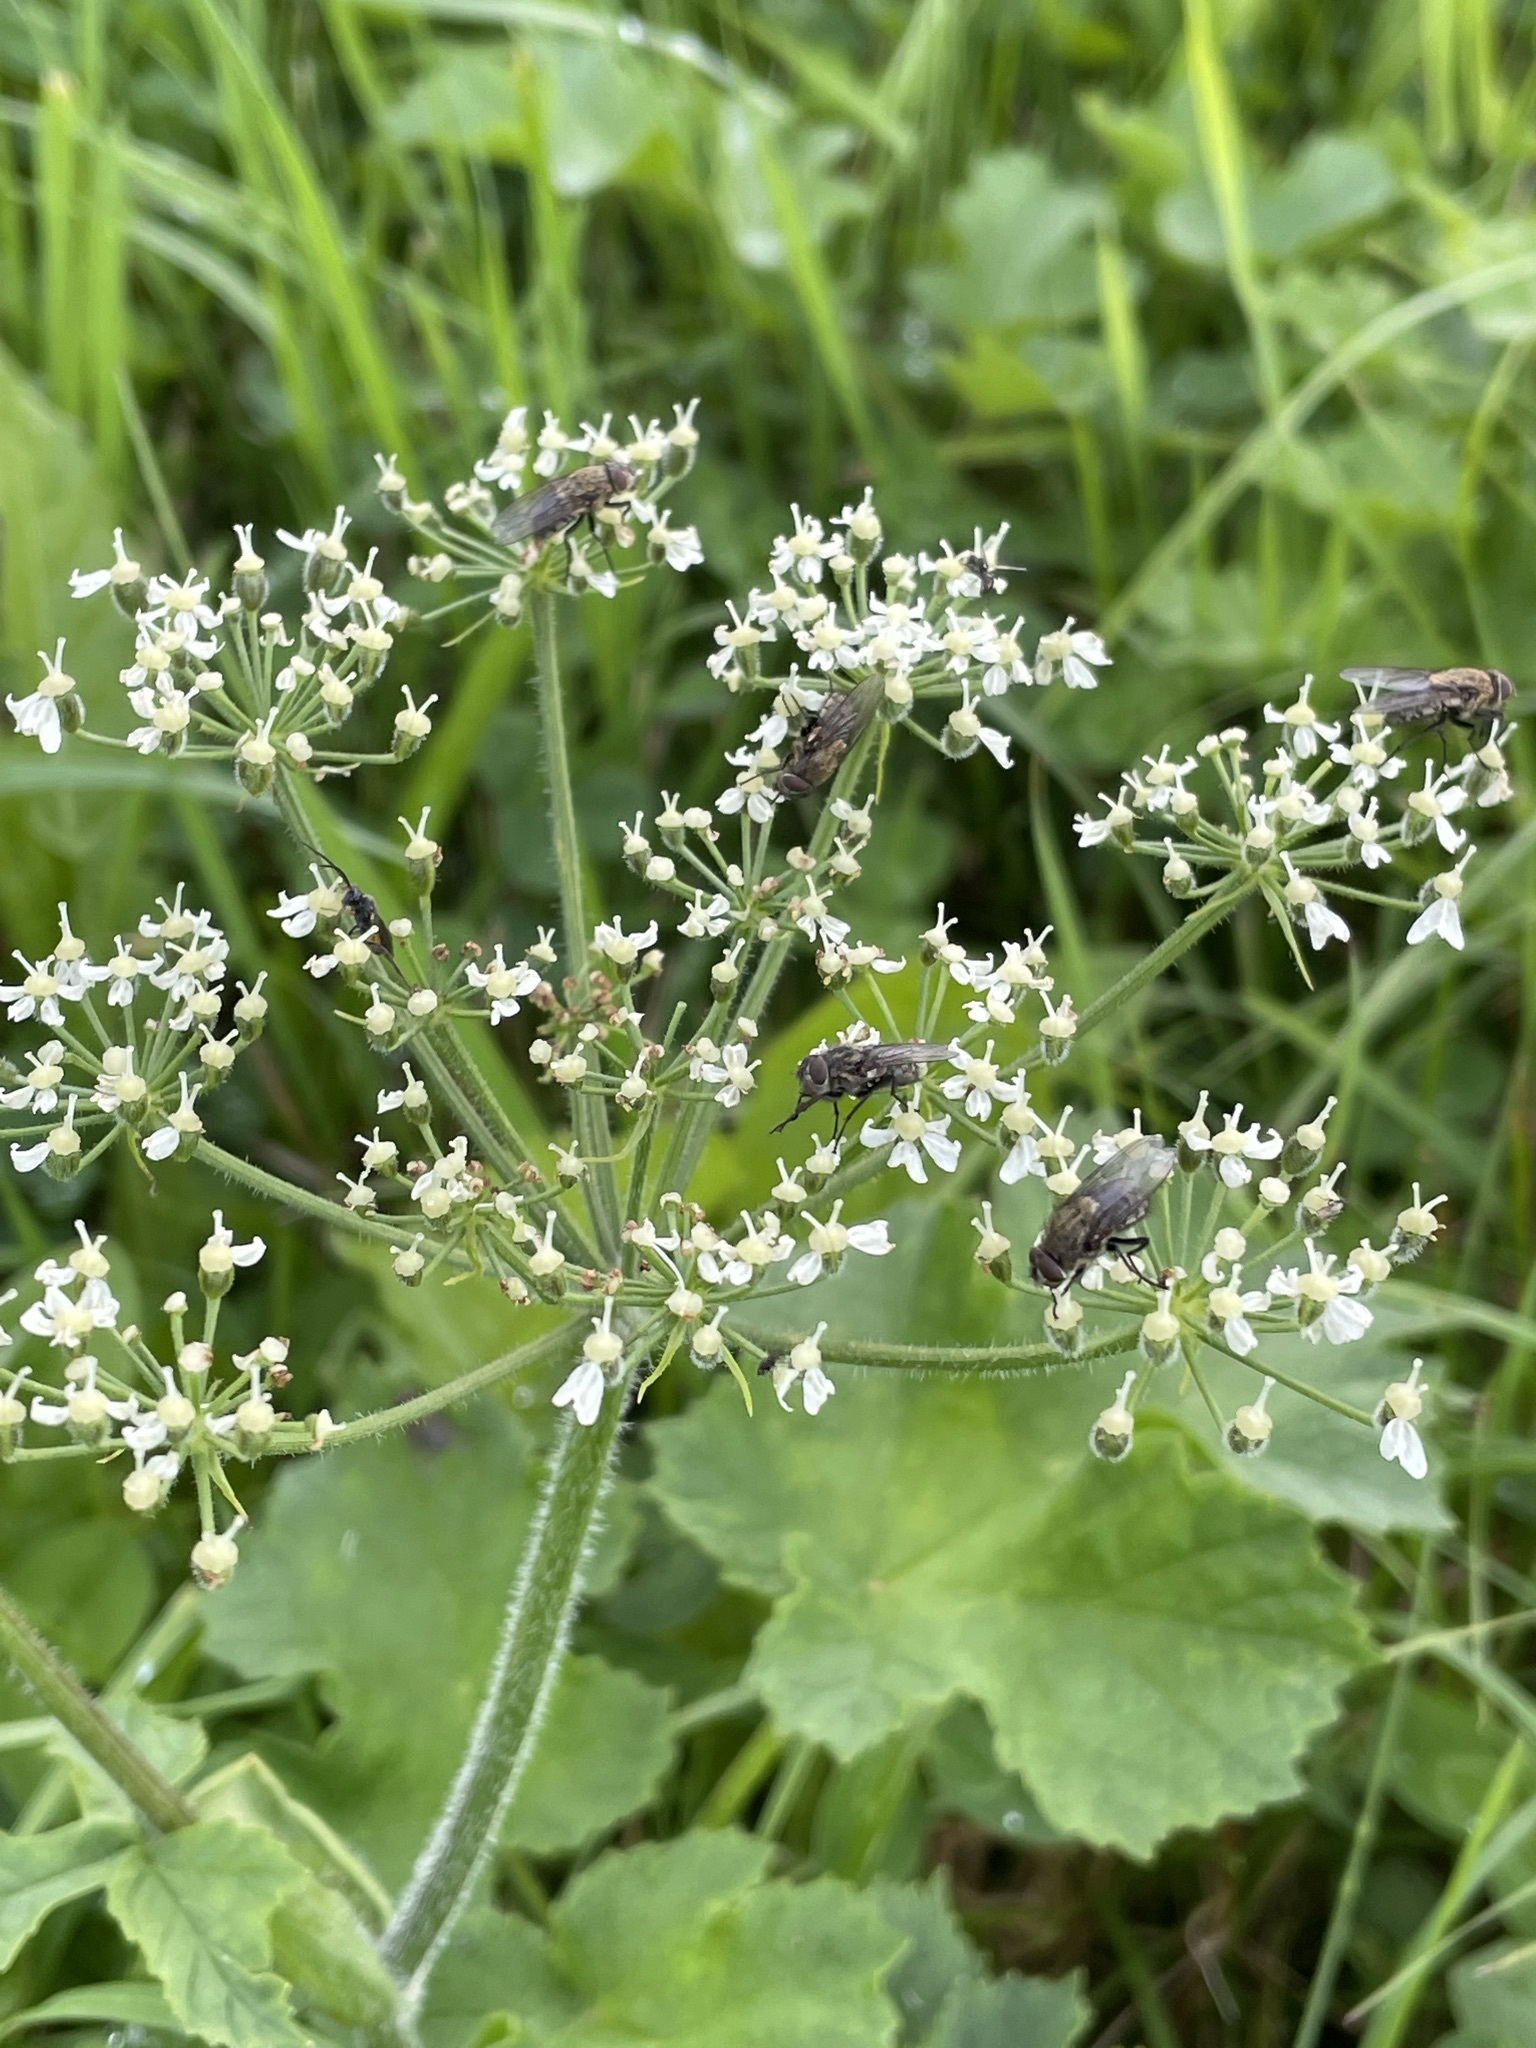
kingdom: Plantae
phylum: Tracheophyta
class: Magnoliopsida
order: Apiales
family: Apiaceae
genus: Heracleum
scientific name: Heracleum sphondylium
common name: Hogweed
